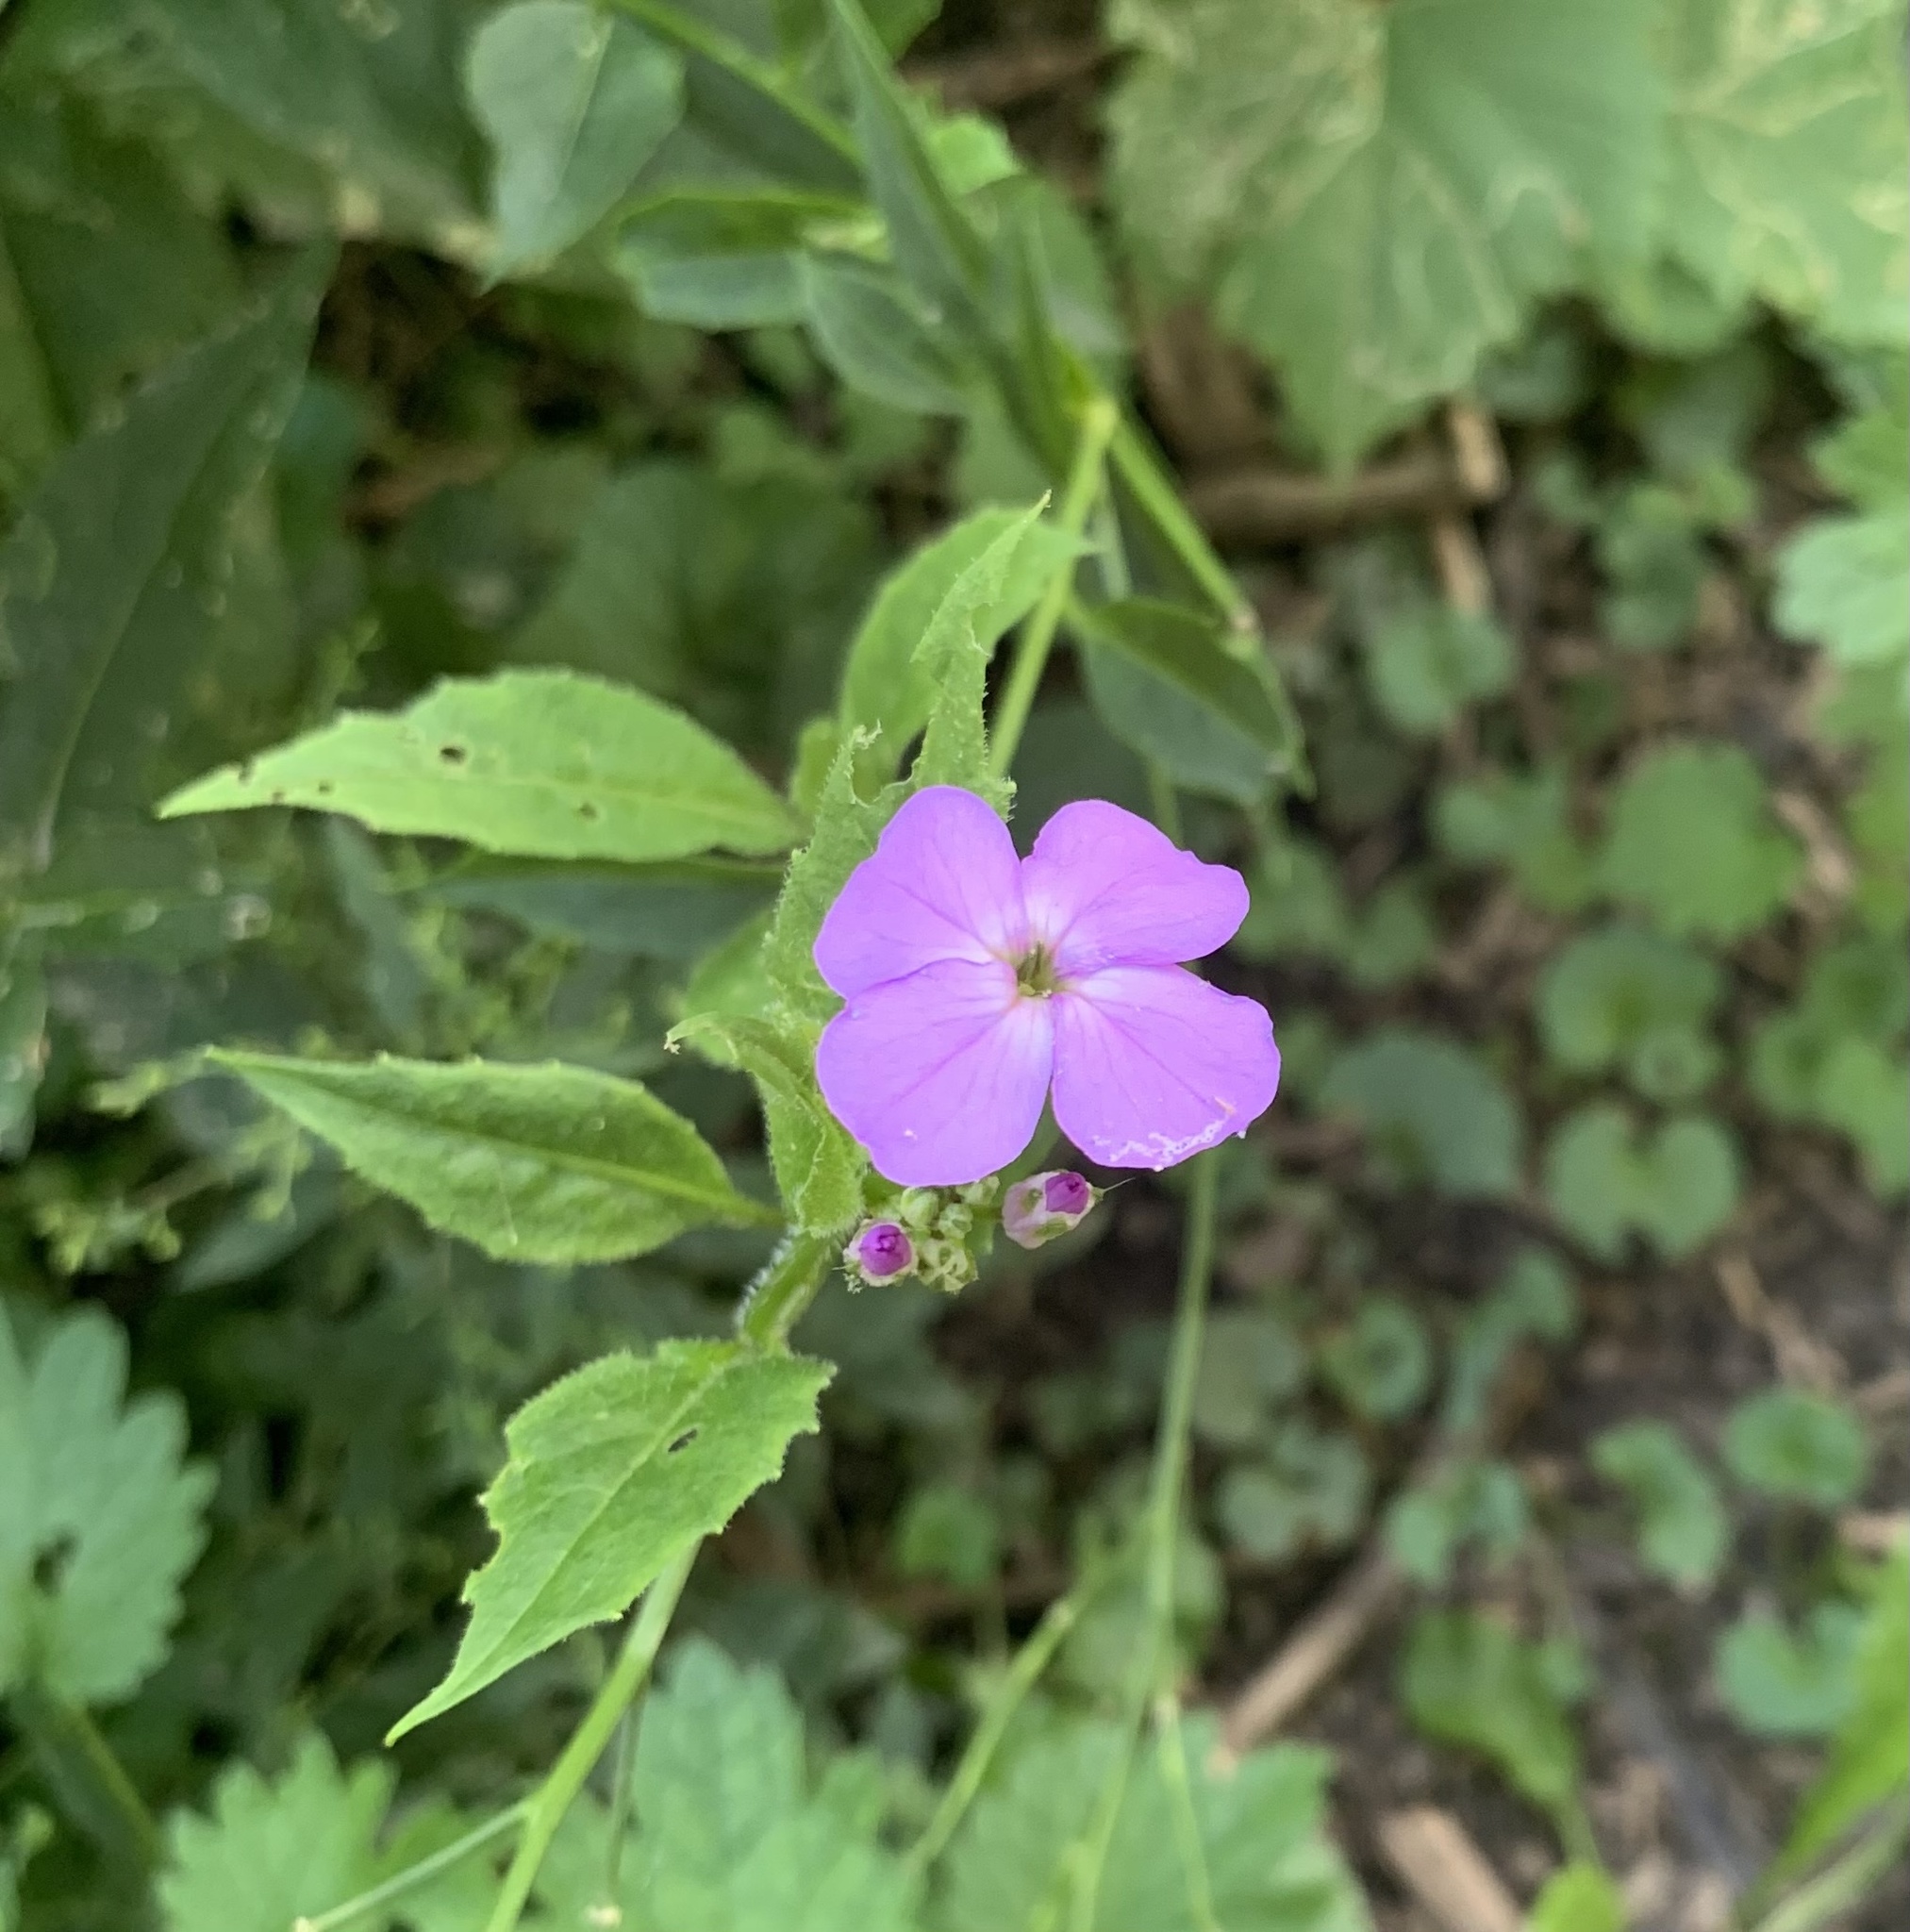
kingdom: Plantae
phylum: Tracheophyta
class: Magnoliopsida
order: Brassicales
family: Brassicaceae
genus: Hesperis
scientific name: Hesperis matronalis
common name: Dame's-violet
